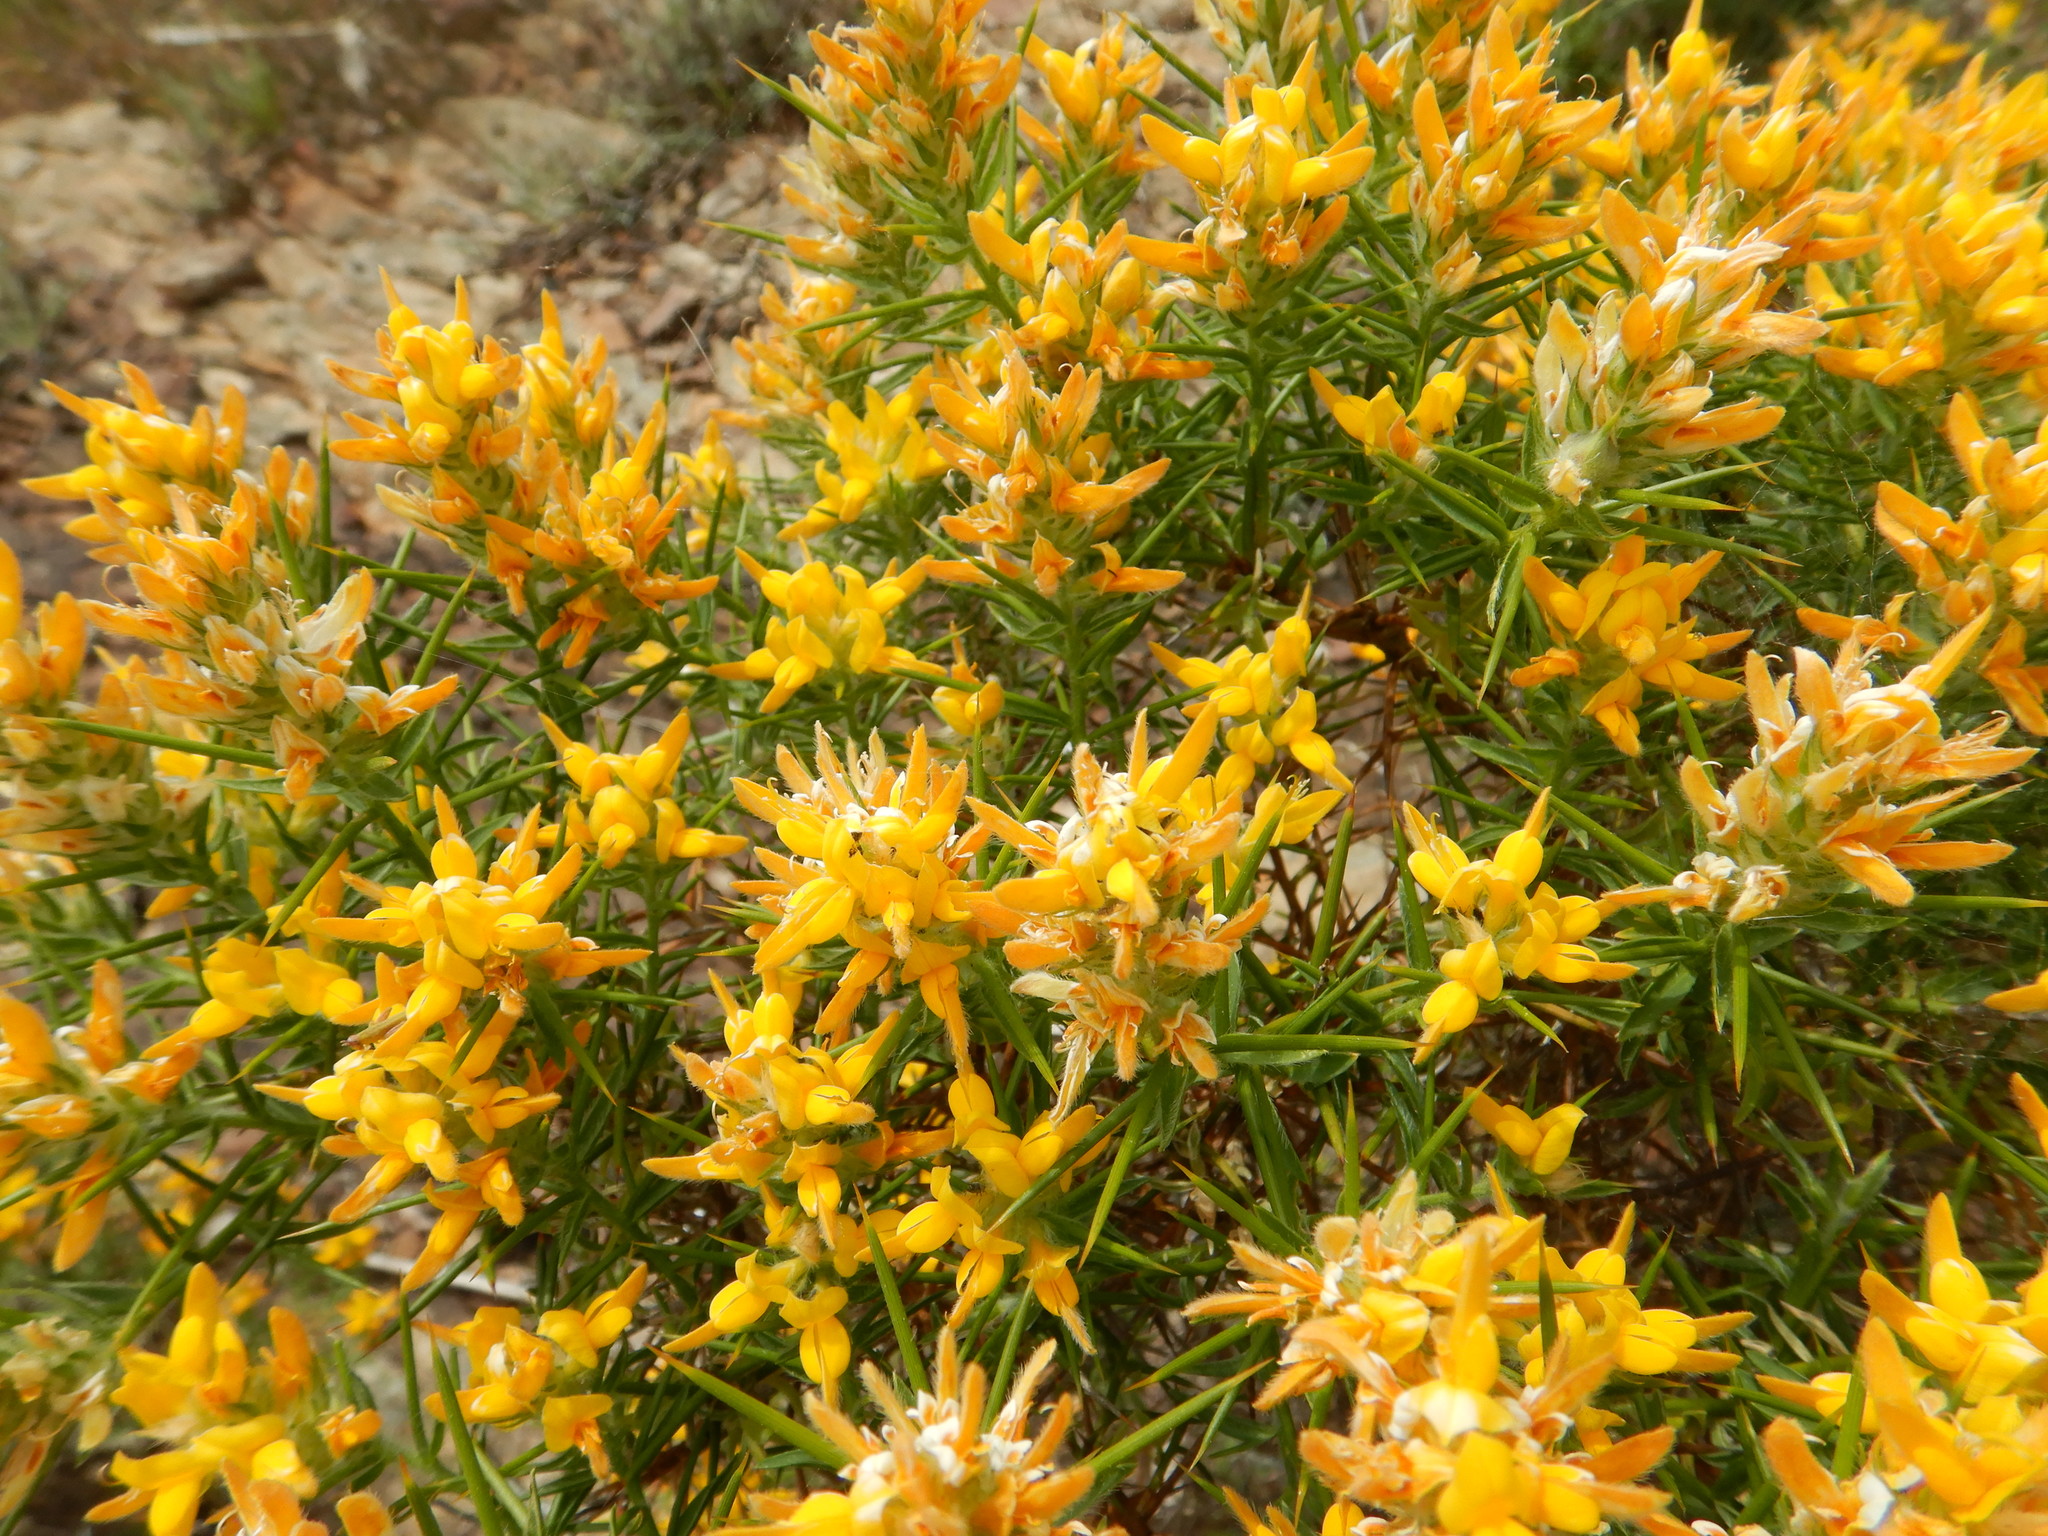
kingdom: Plantae
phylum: Tracheophyta
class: Magnoliopsida
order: Fabales
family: Fabaceae
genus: Genista
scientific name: Genista hirsuta
